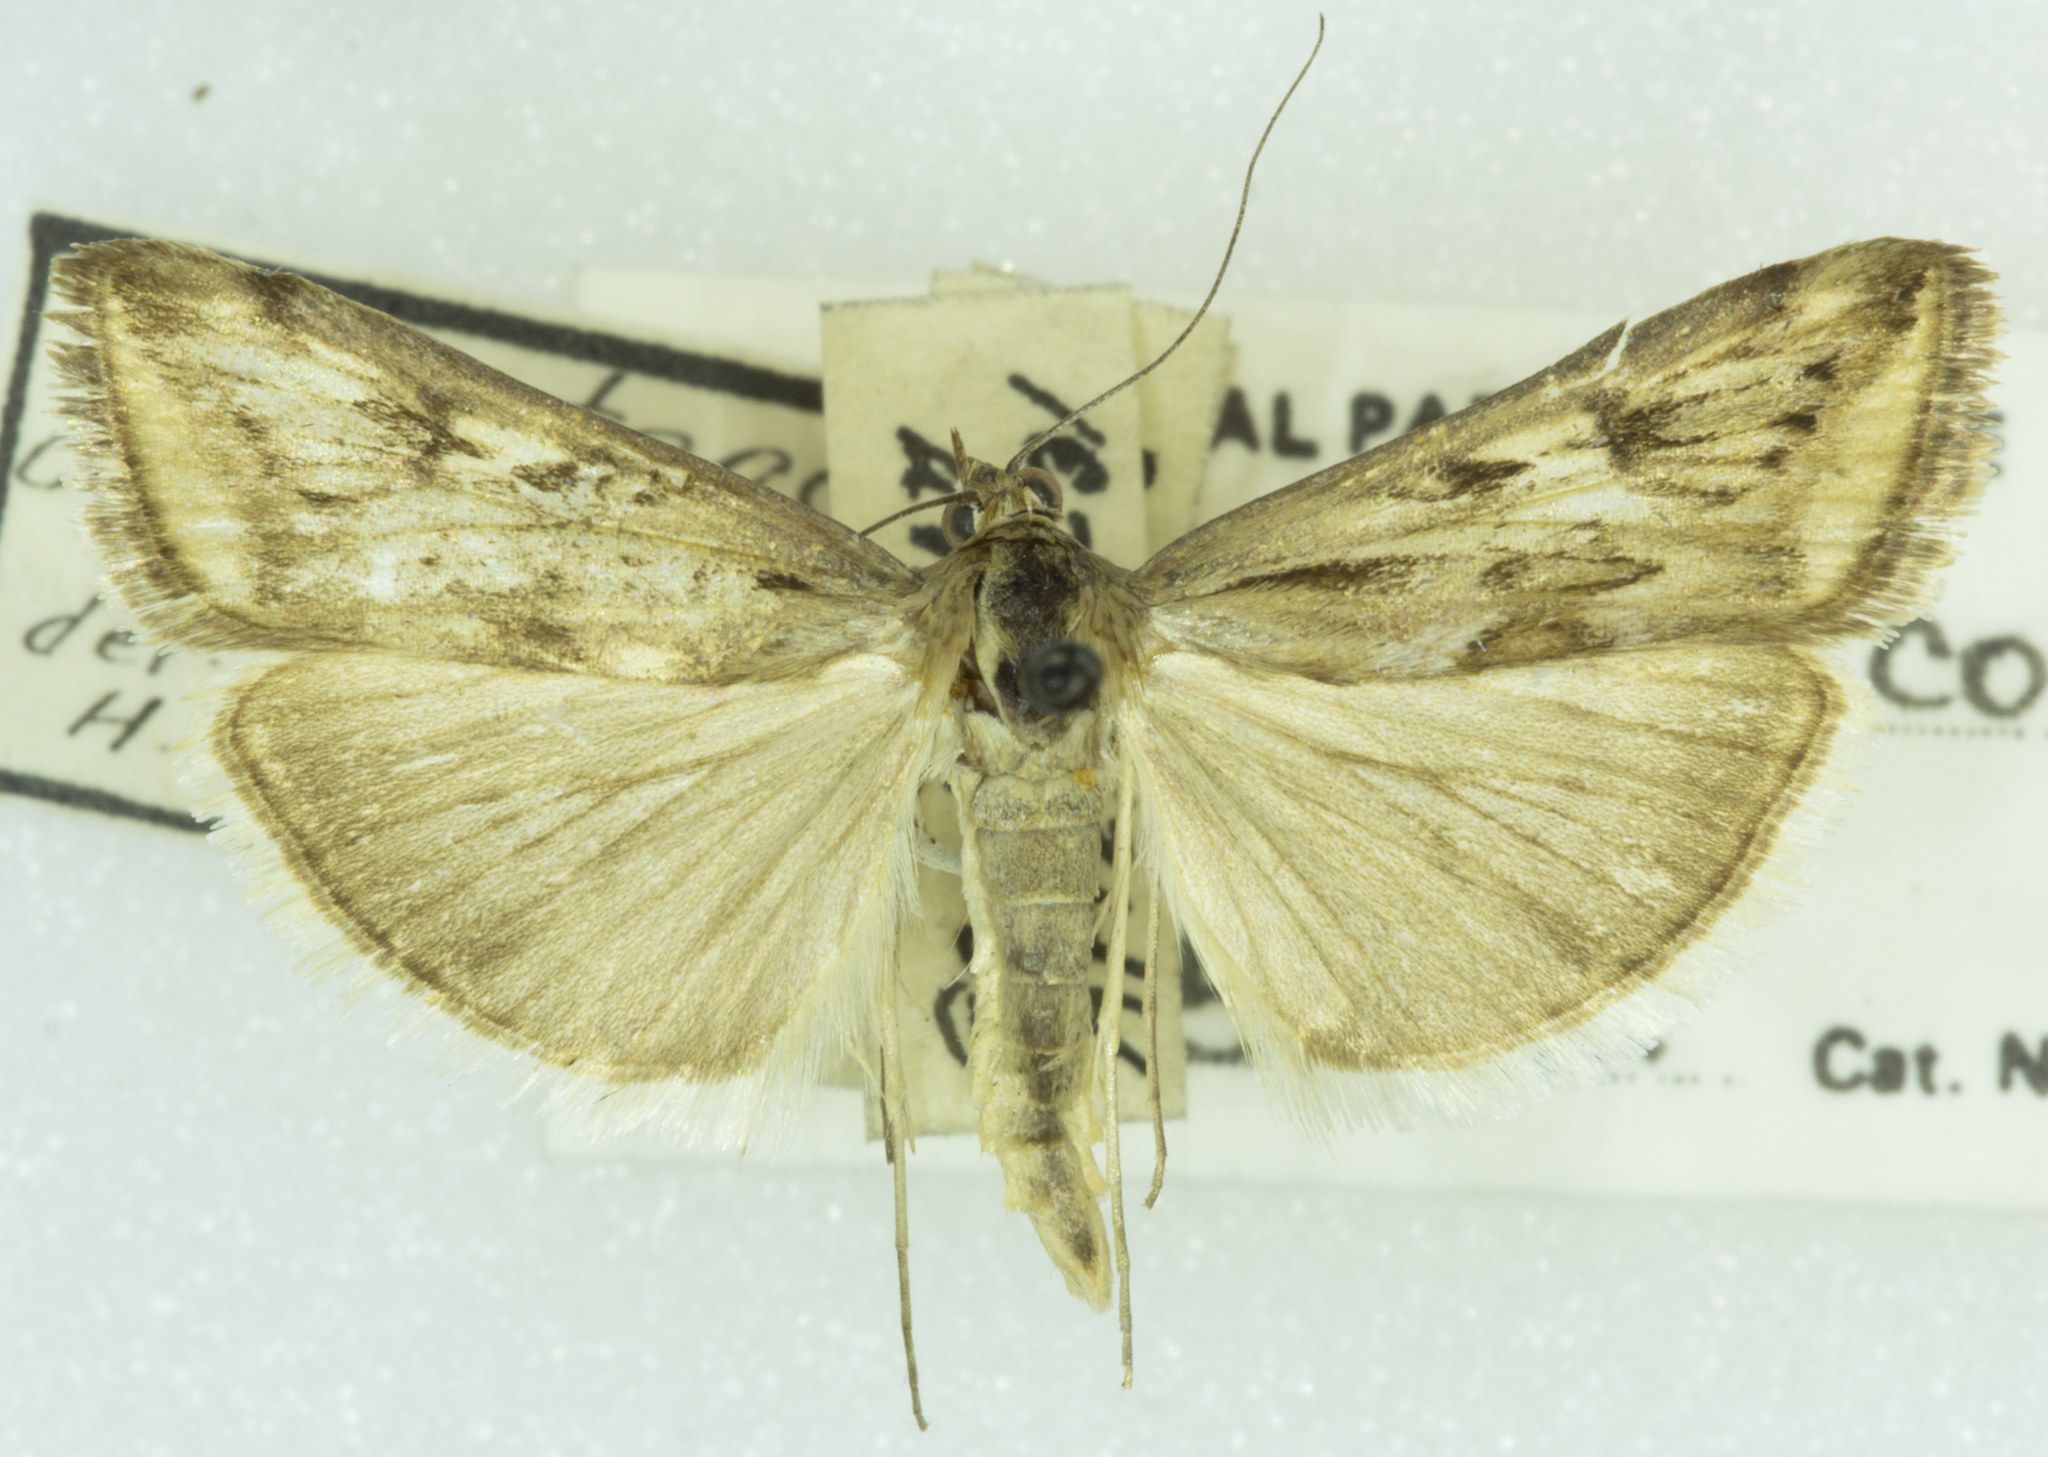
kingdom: Animalia
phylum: Arthropoda
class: Insecta
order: Lepidoptera
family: Crambidae
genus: Loxostege
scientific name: Loxostege commixtalis
